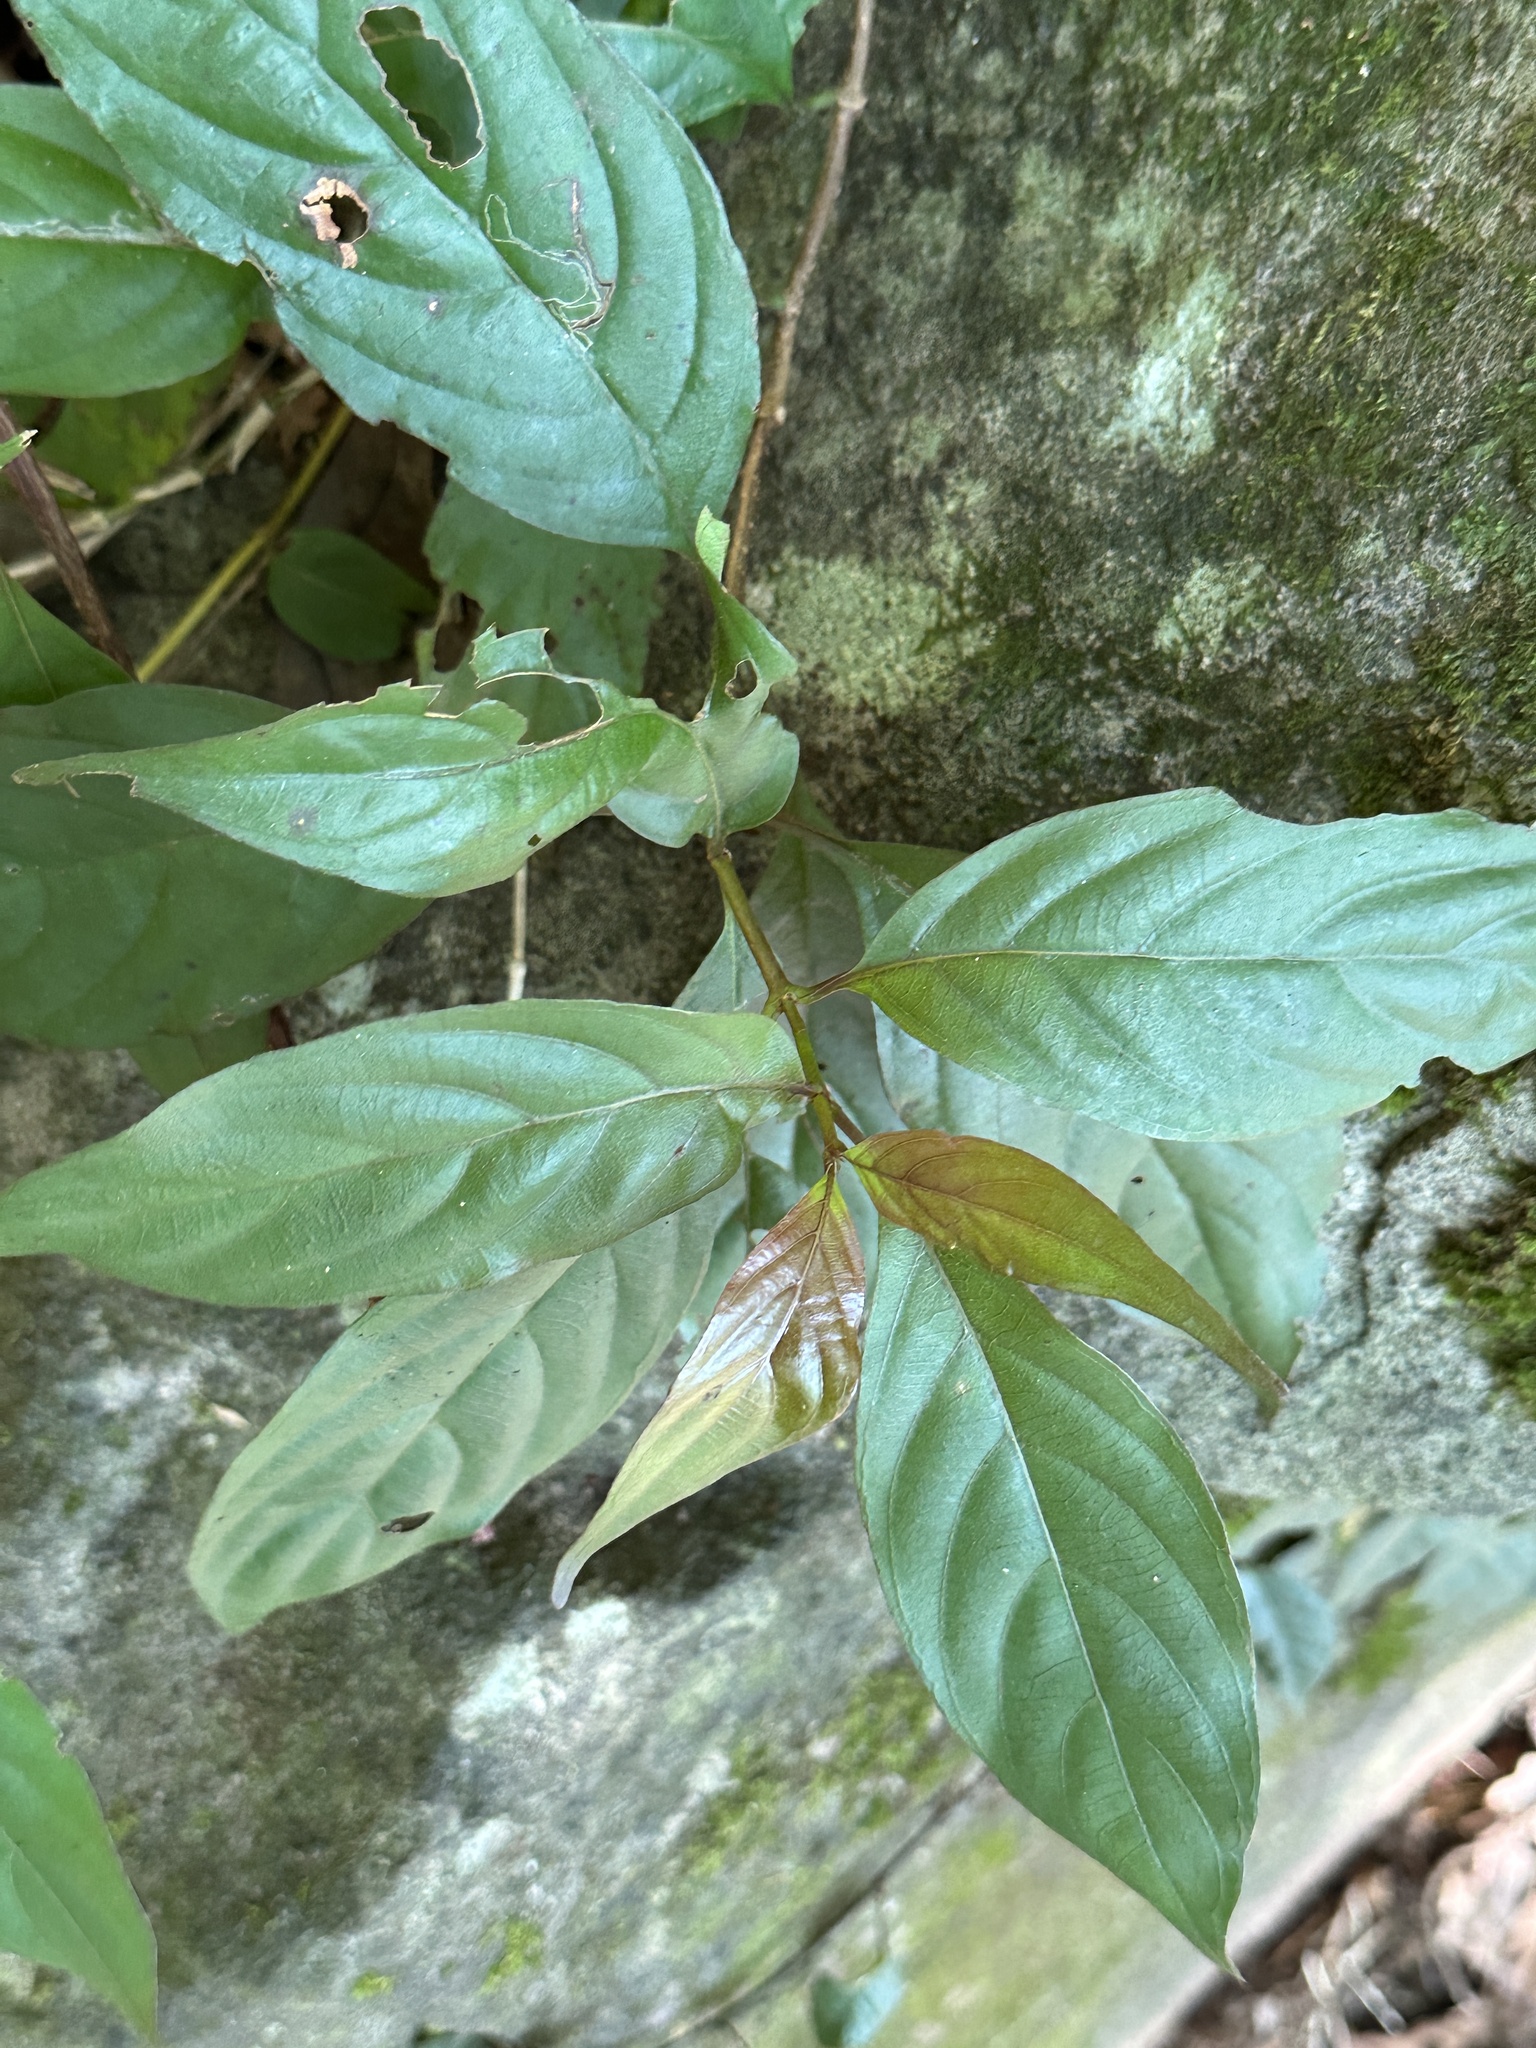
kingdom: Plantae
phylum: Tracheophyta
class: Magnoliopsida
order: Gentianales
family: Rubiaceae
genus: Mussaenda
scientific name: Mussaenda parviflora
